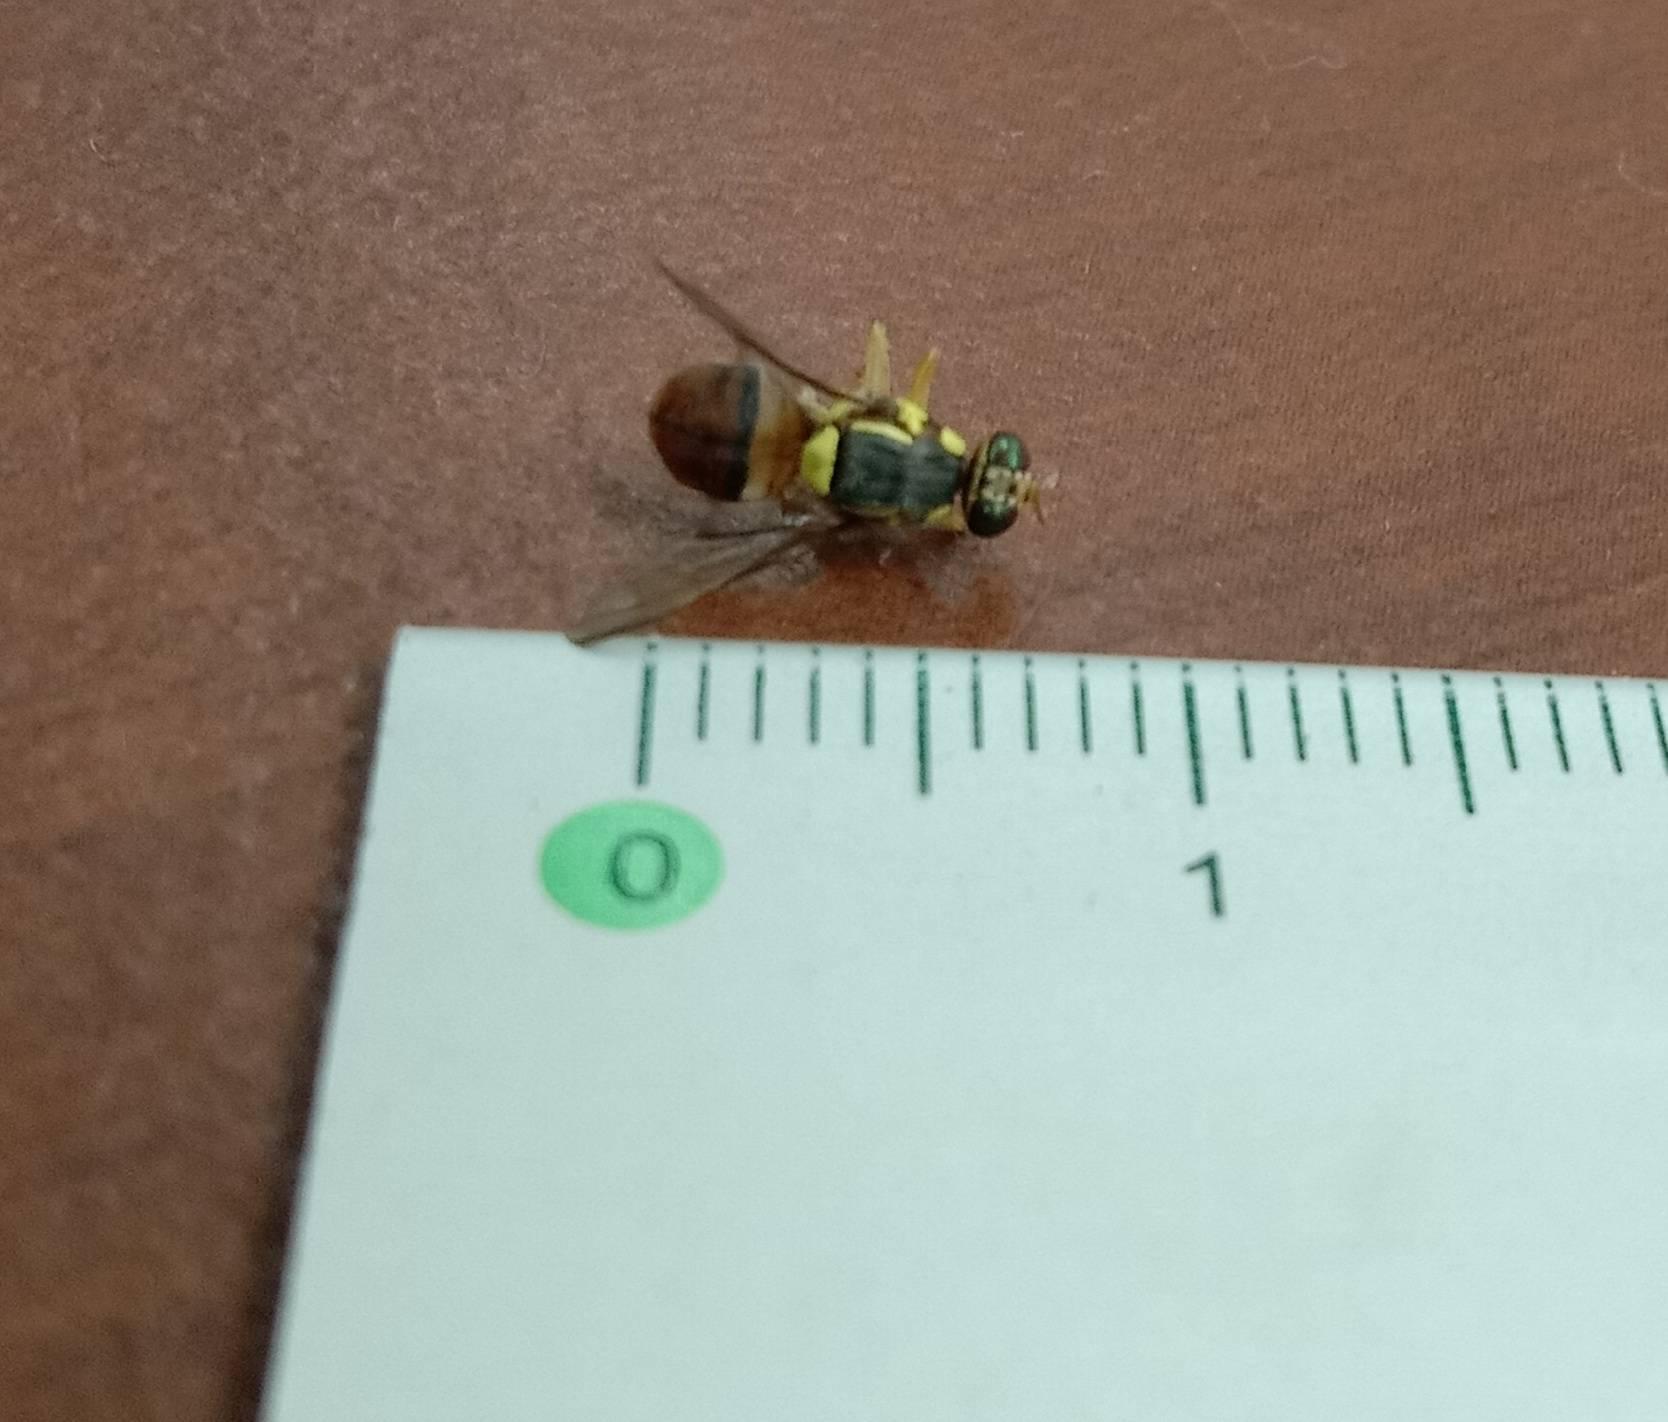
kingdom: Animalia
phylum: Arthropoda
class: Insecta
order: Diptera
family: Tephritidae
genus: Bactrocera
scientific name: Bactrocera dorsalis
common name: Oriental fruit fly
